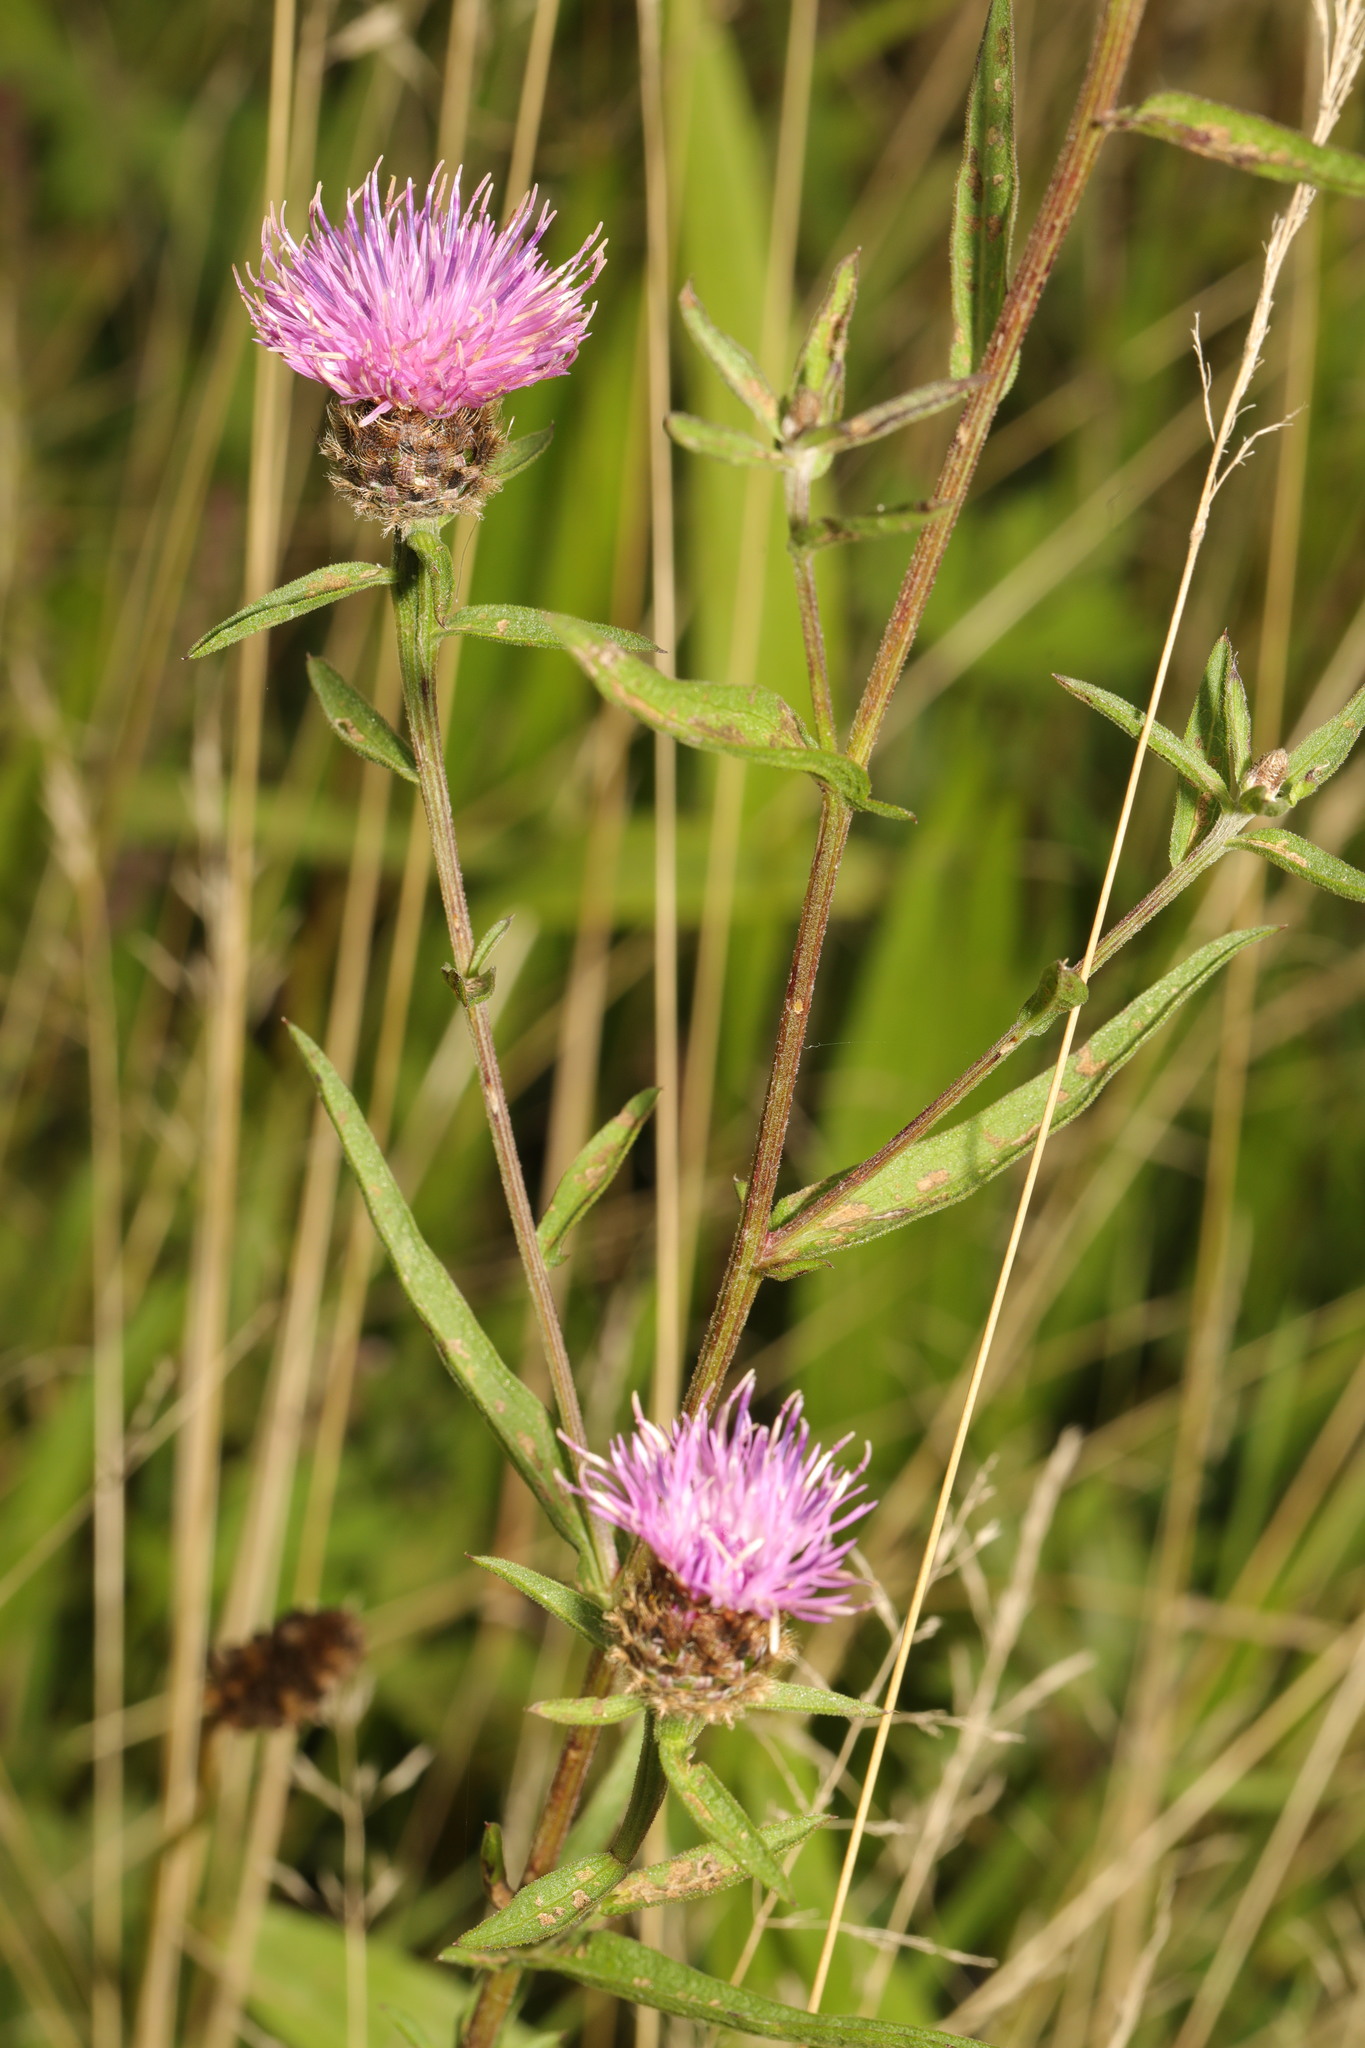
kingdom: Plantae
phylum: Tracheophyta
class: Magnoliopsida
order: Asterales
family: Asteraceae
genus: Centaurea
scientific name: Centaurea nigra
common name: Lesser knapweed
